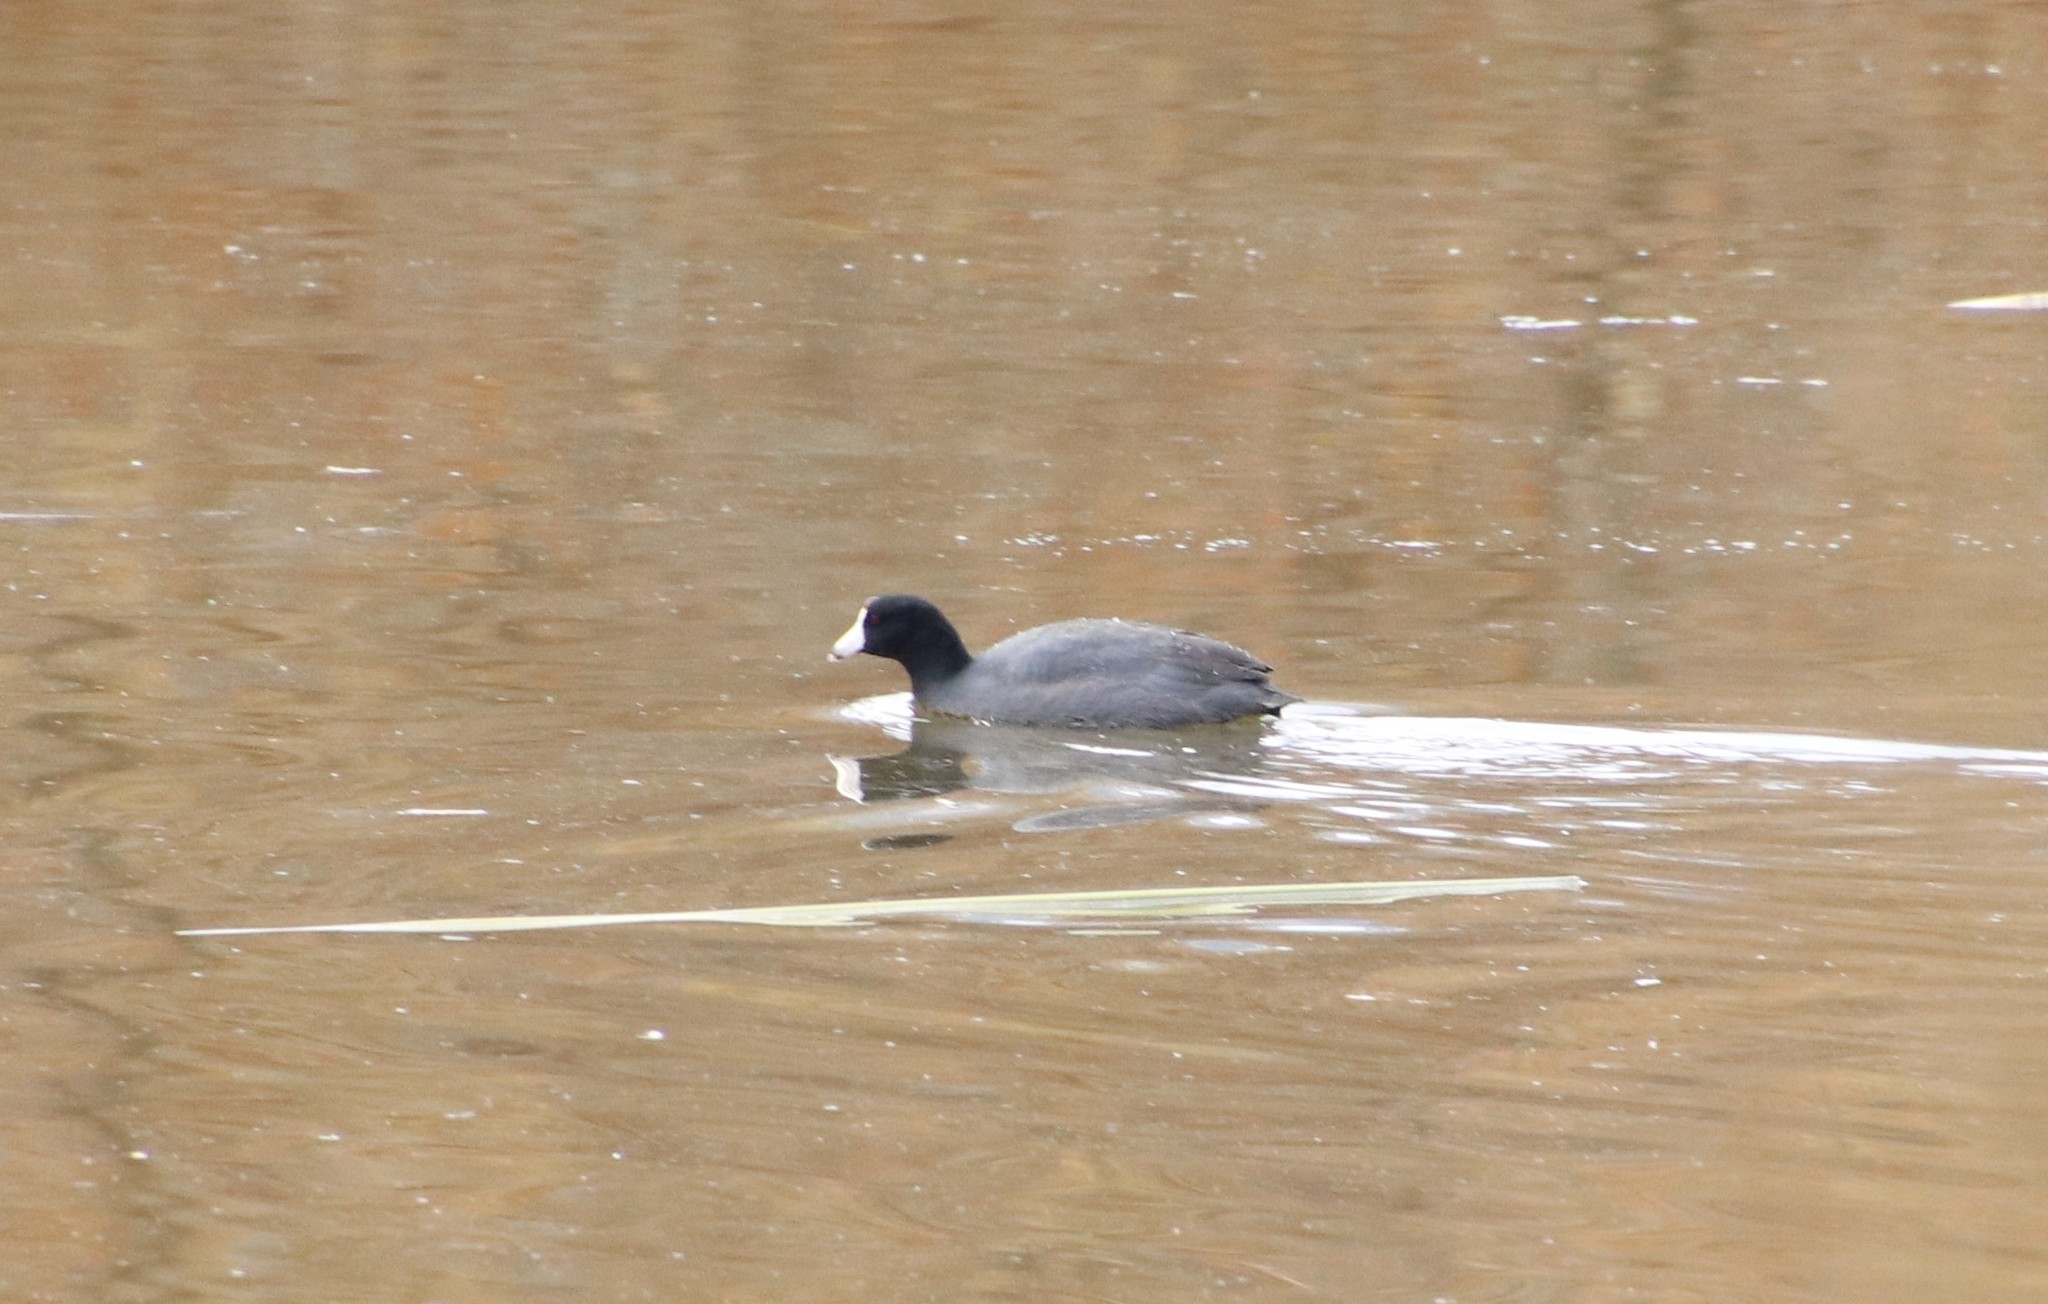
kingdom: Animalia
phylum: Chordata
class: Aves
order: Gruiformes
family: Rallidae
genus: Fulica
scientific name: Fulica americana
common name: American coot
